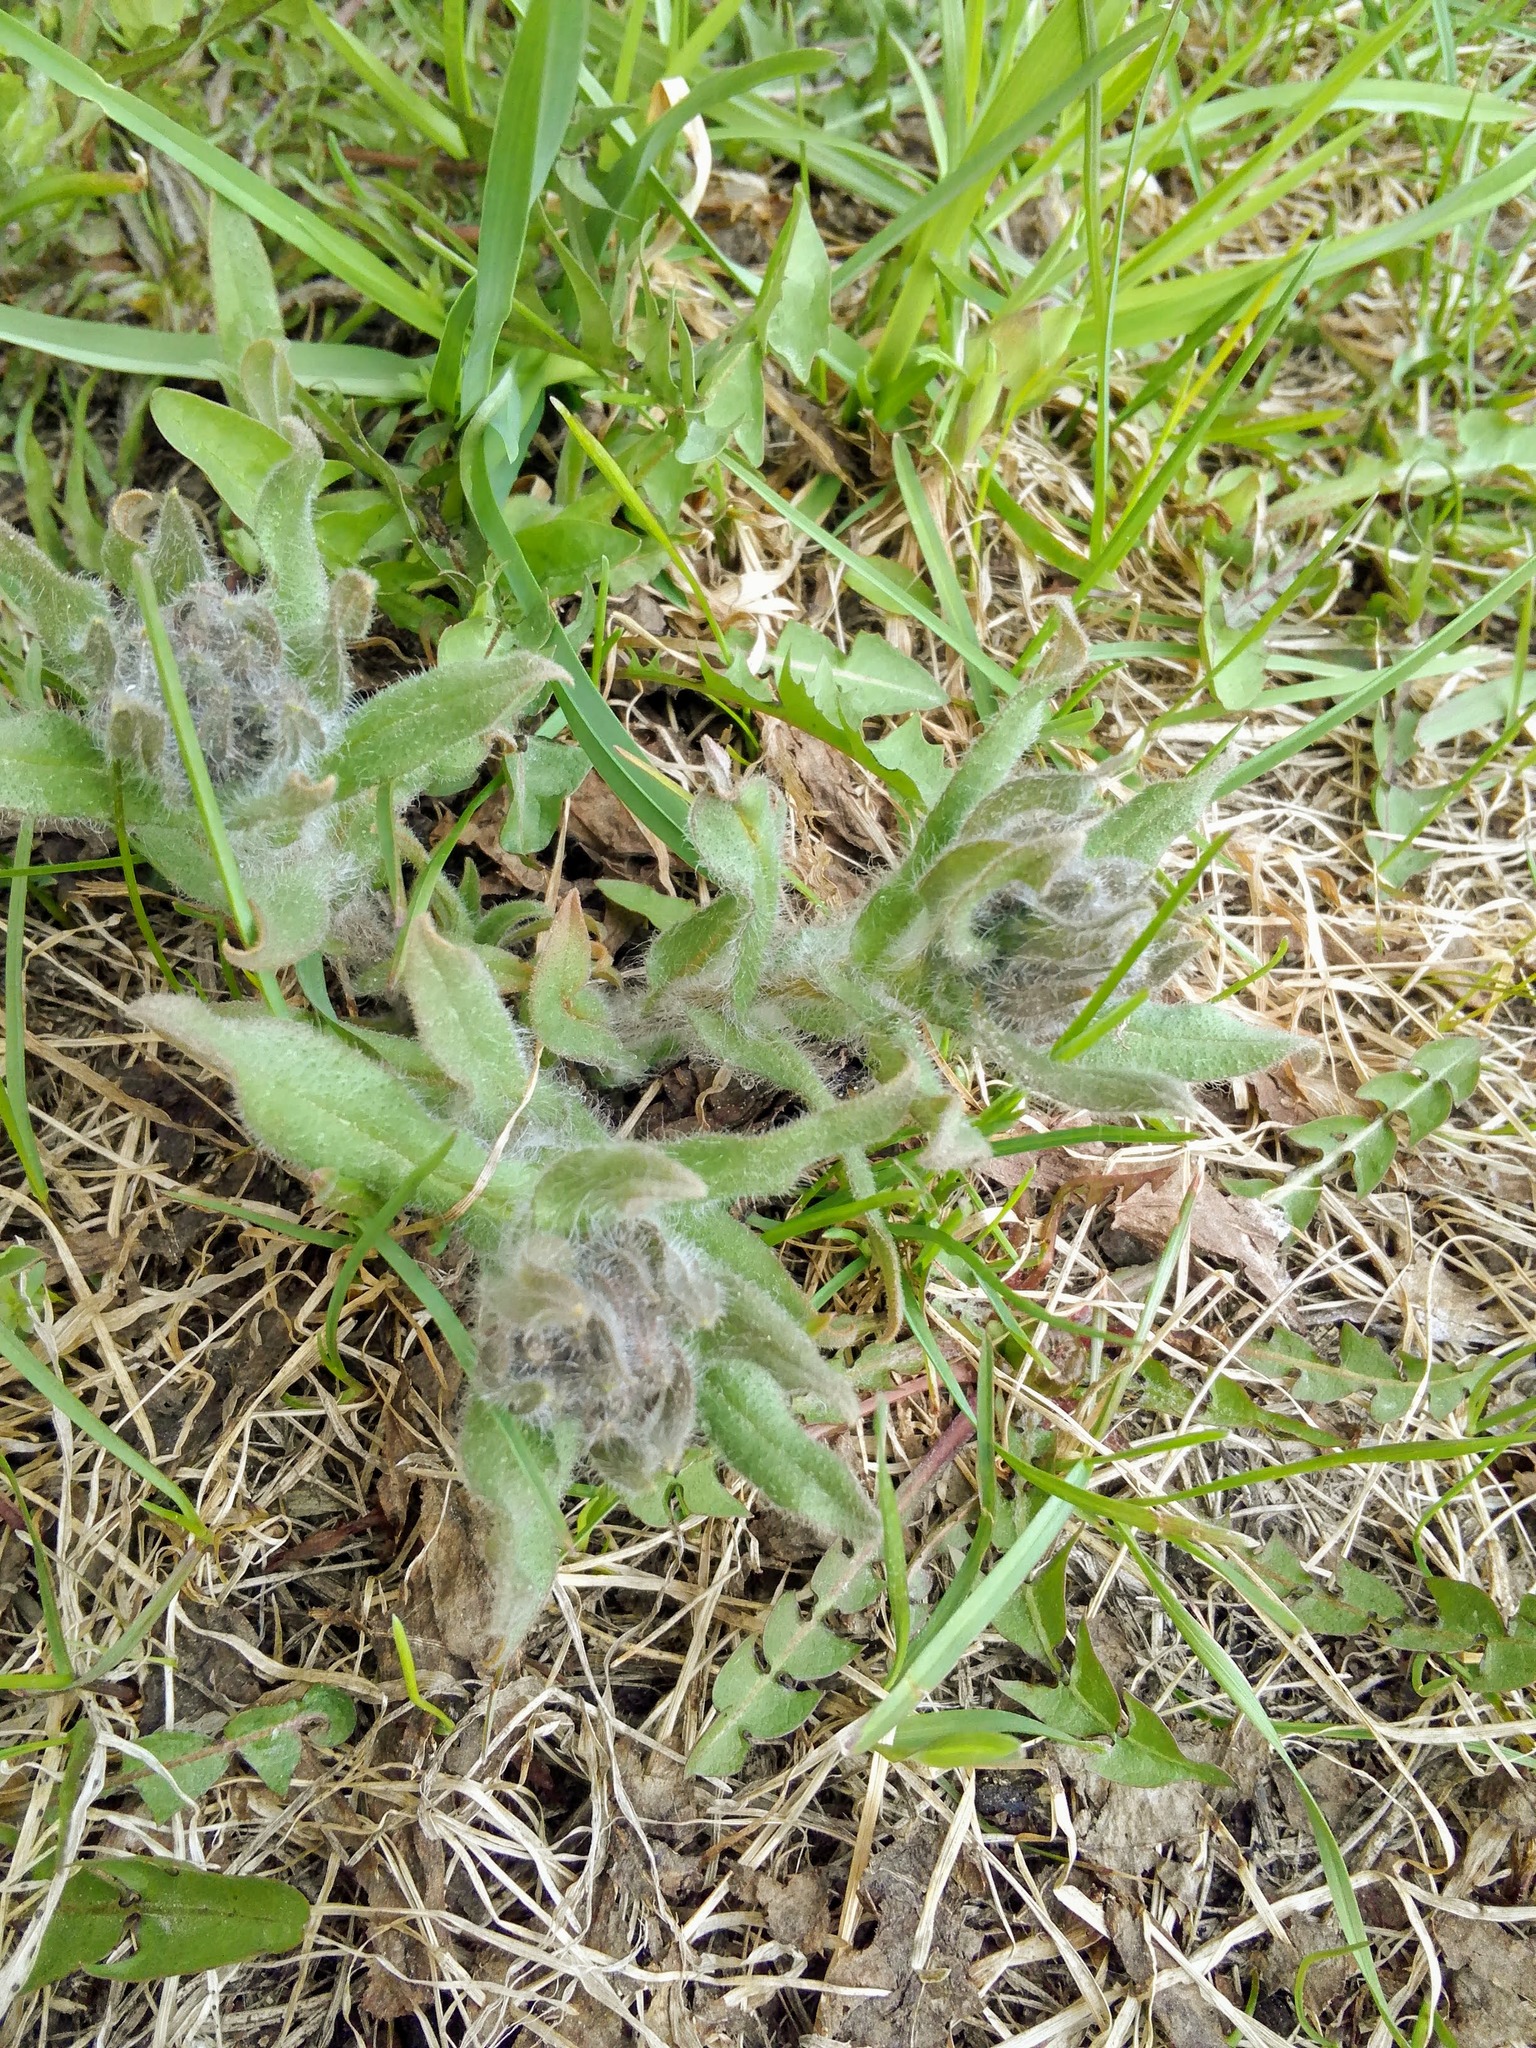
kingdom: Plantae
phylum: Tracheophyta
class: Magnoliopsida
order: Boraginales
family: Boraginaceae
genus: Nonea
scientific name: Nonea pulla
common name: Brown nonea
